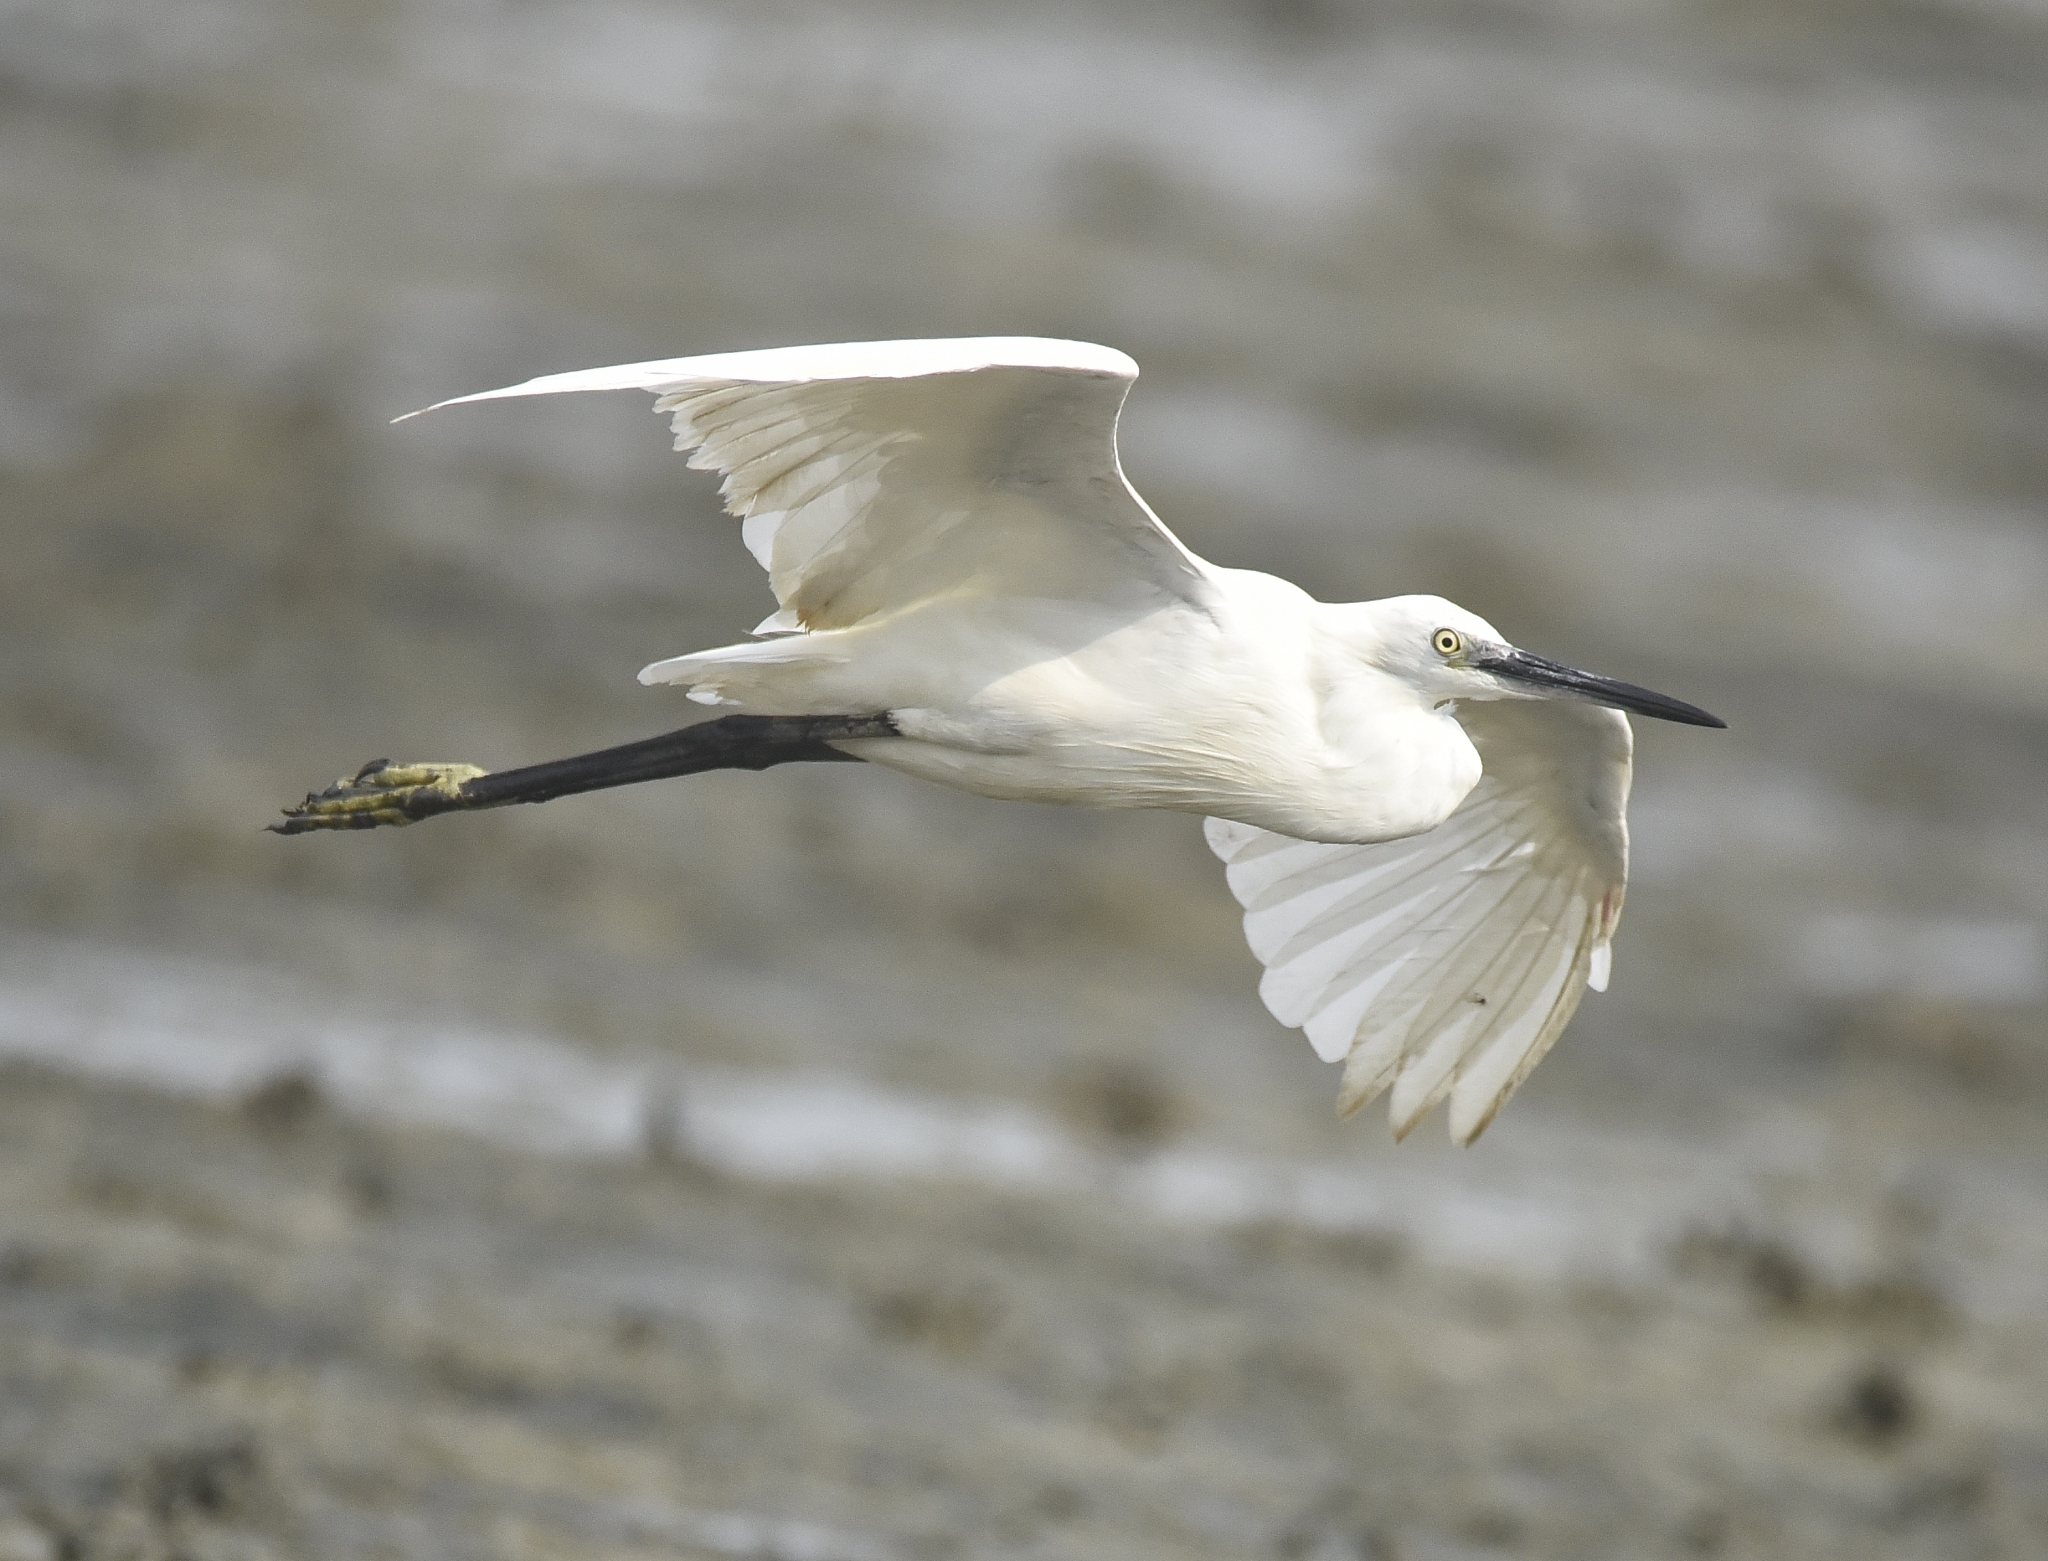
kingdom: Animalia
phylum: Chordata
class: Aves
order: Pelecaniformes
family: Ardeidae
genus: Egretta
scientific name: Egretta garzetta
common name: Little egret
